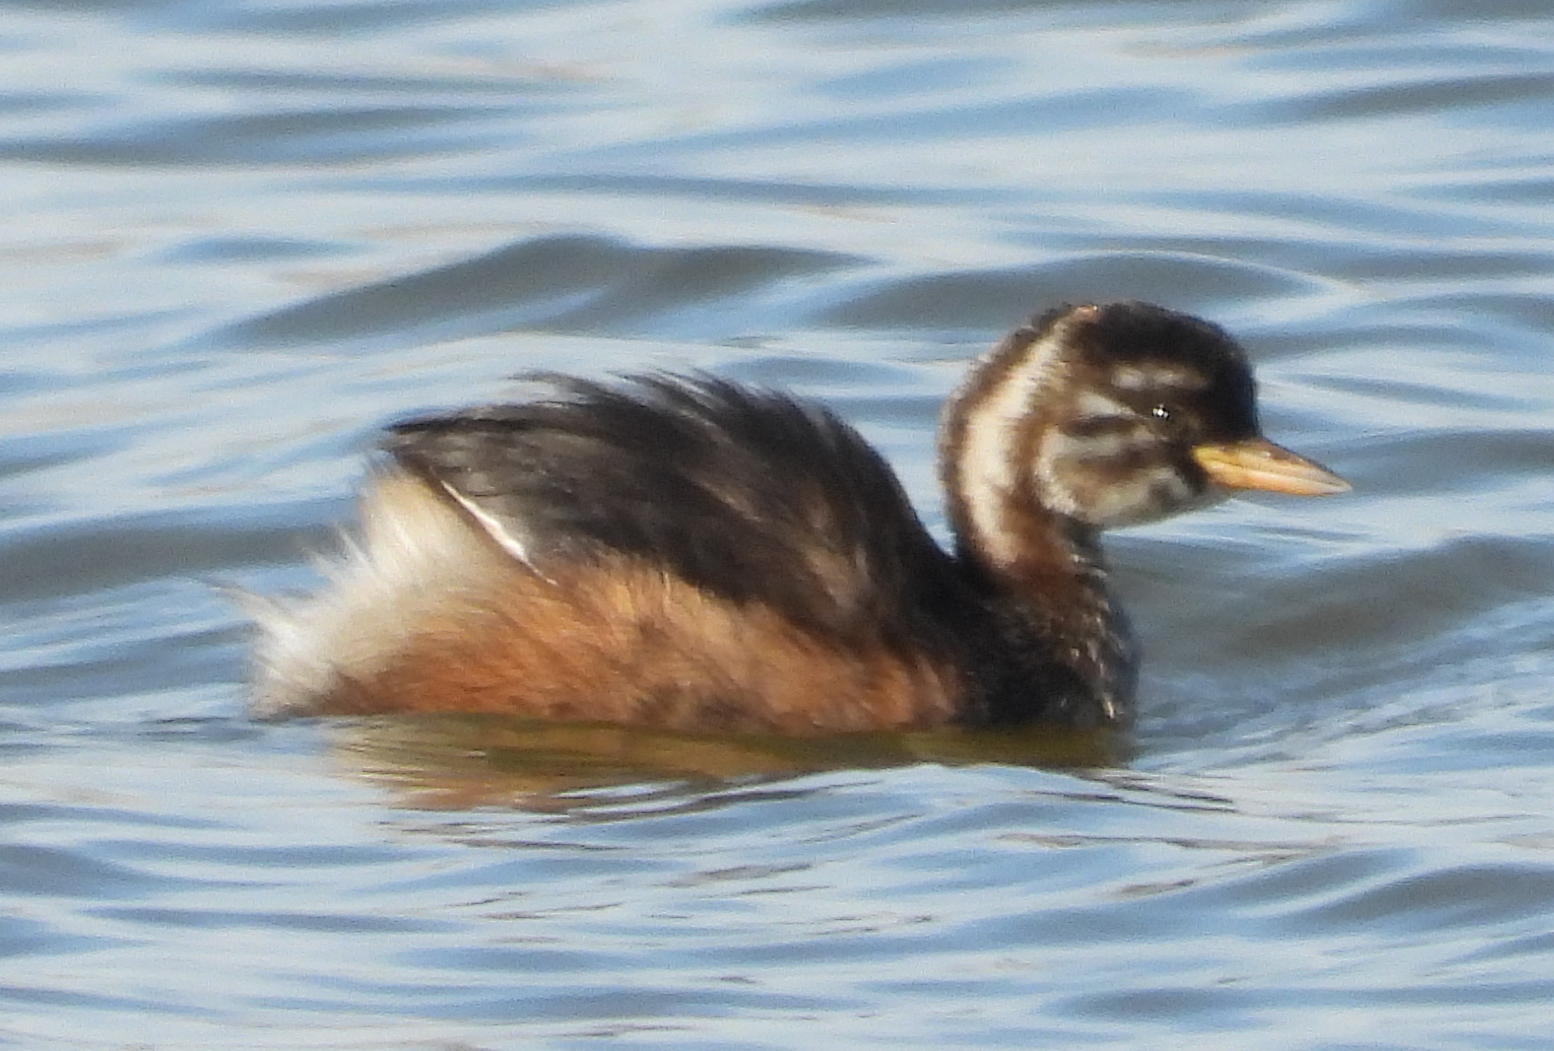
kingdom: Animalia
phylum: Chordata
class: Aves
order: Podicipediformes
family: Podicipedidae
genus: Tachybaptus
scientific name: Tachybaptus ruficollis
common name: Little grebe
